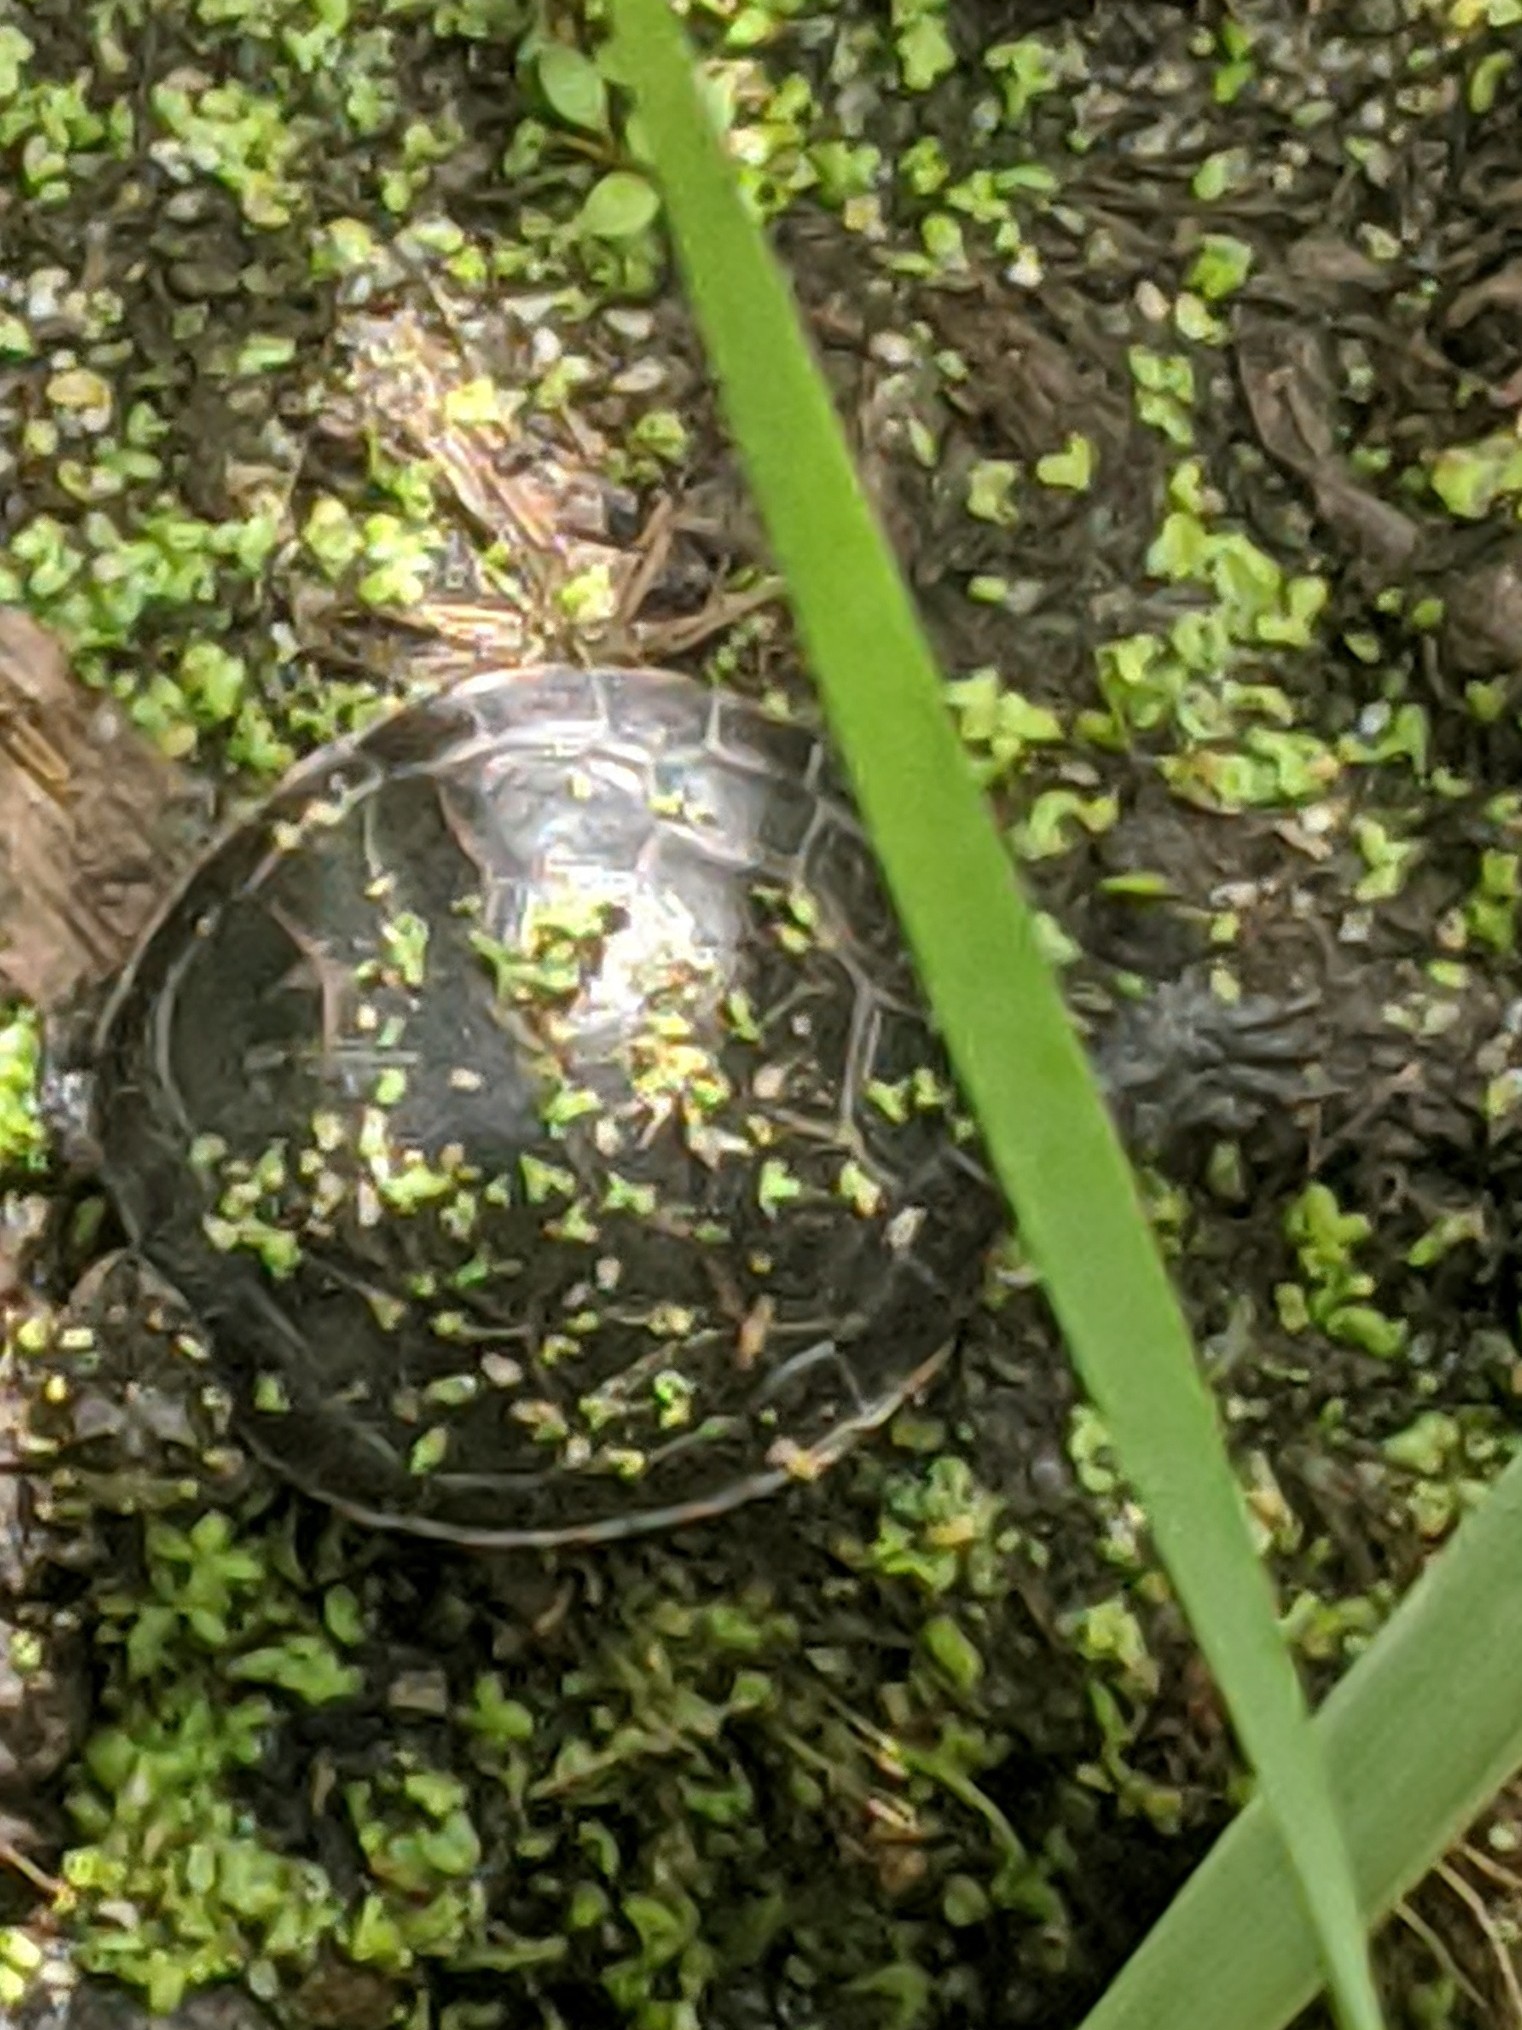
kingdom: Animalia
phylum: Chordata
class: Testudines
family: Emydidae
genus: Chrysemys
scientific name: Chrysemys picta
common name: Painted turtle
